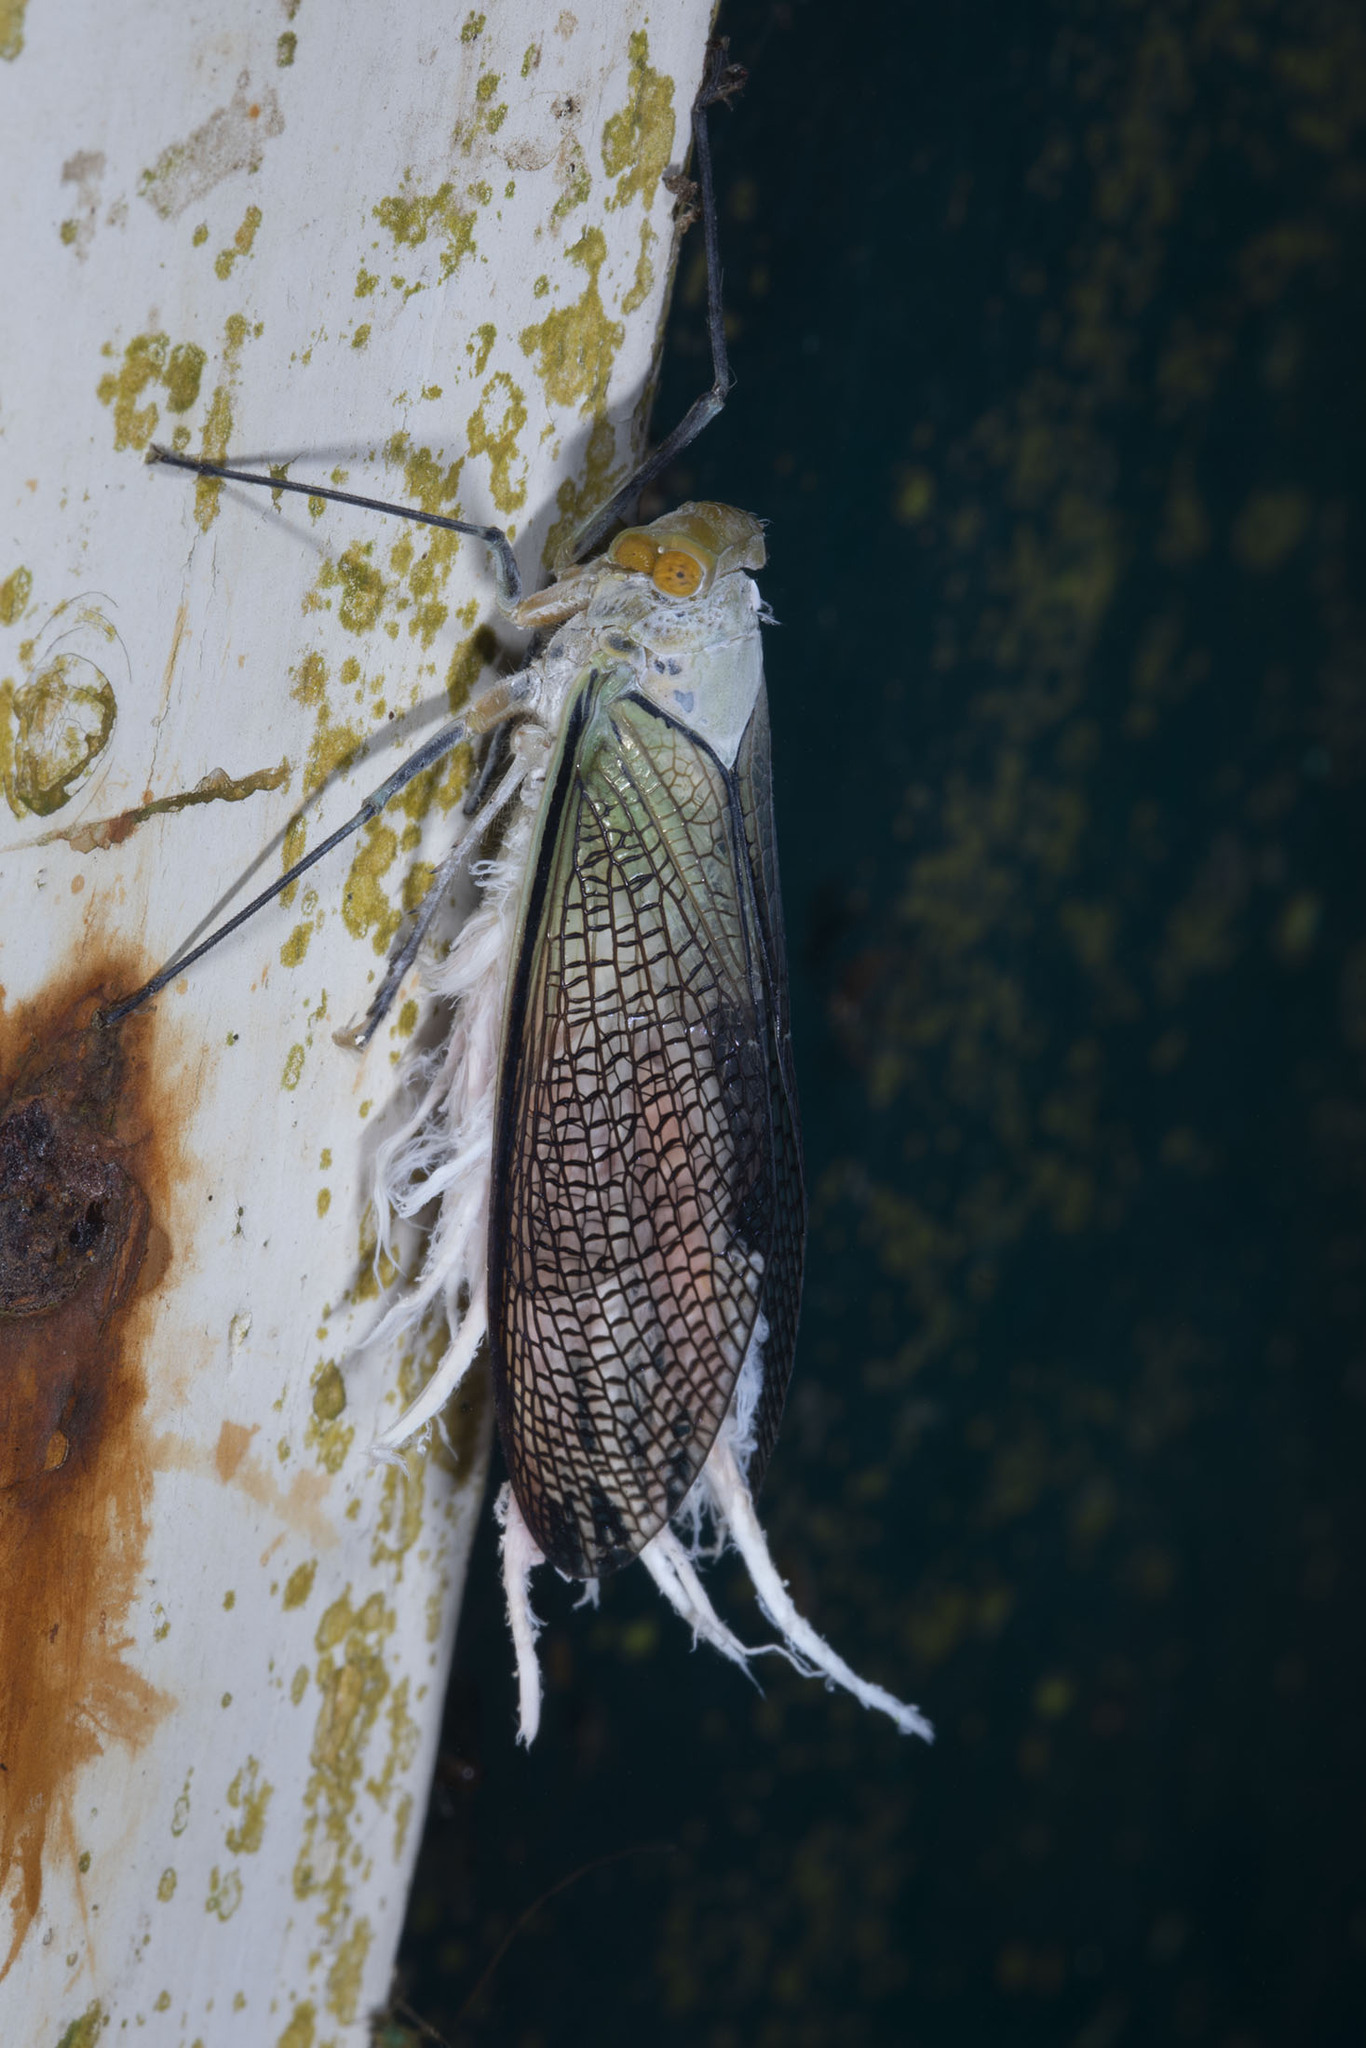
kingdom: Animalia
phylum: Arthropoda
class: Insecta
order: Hemiptera
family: Fulgoridae
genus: Pterodictya
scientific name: Pterodictya reticularis
